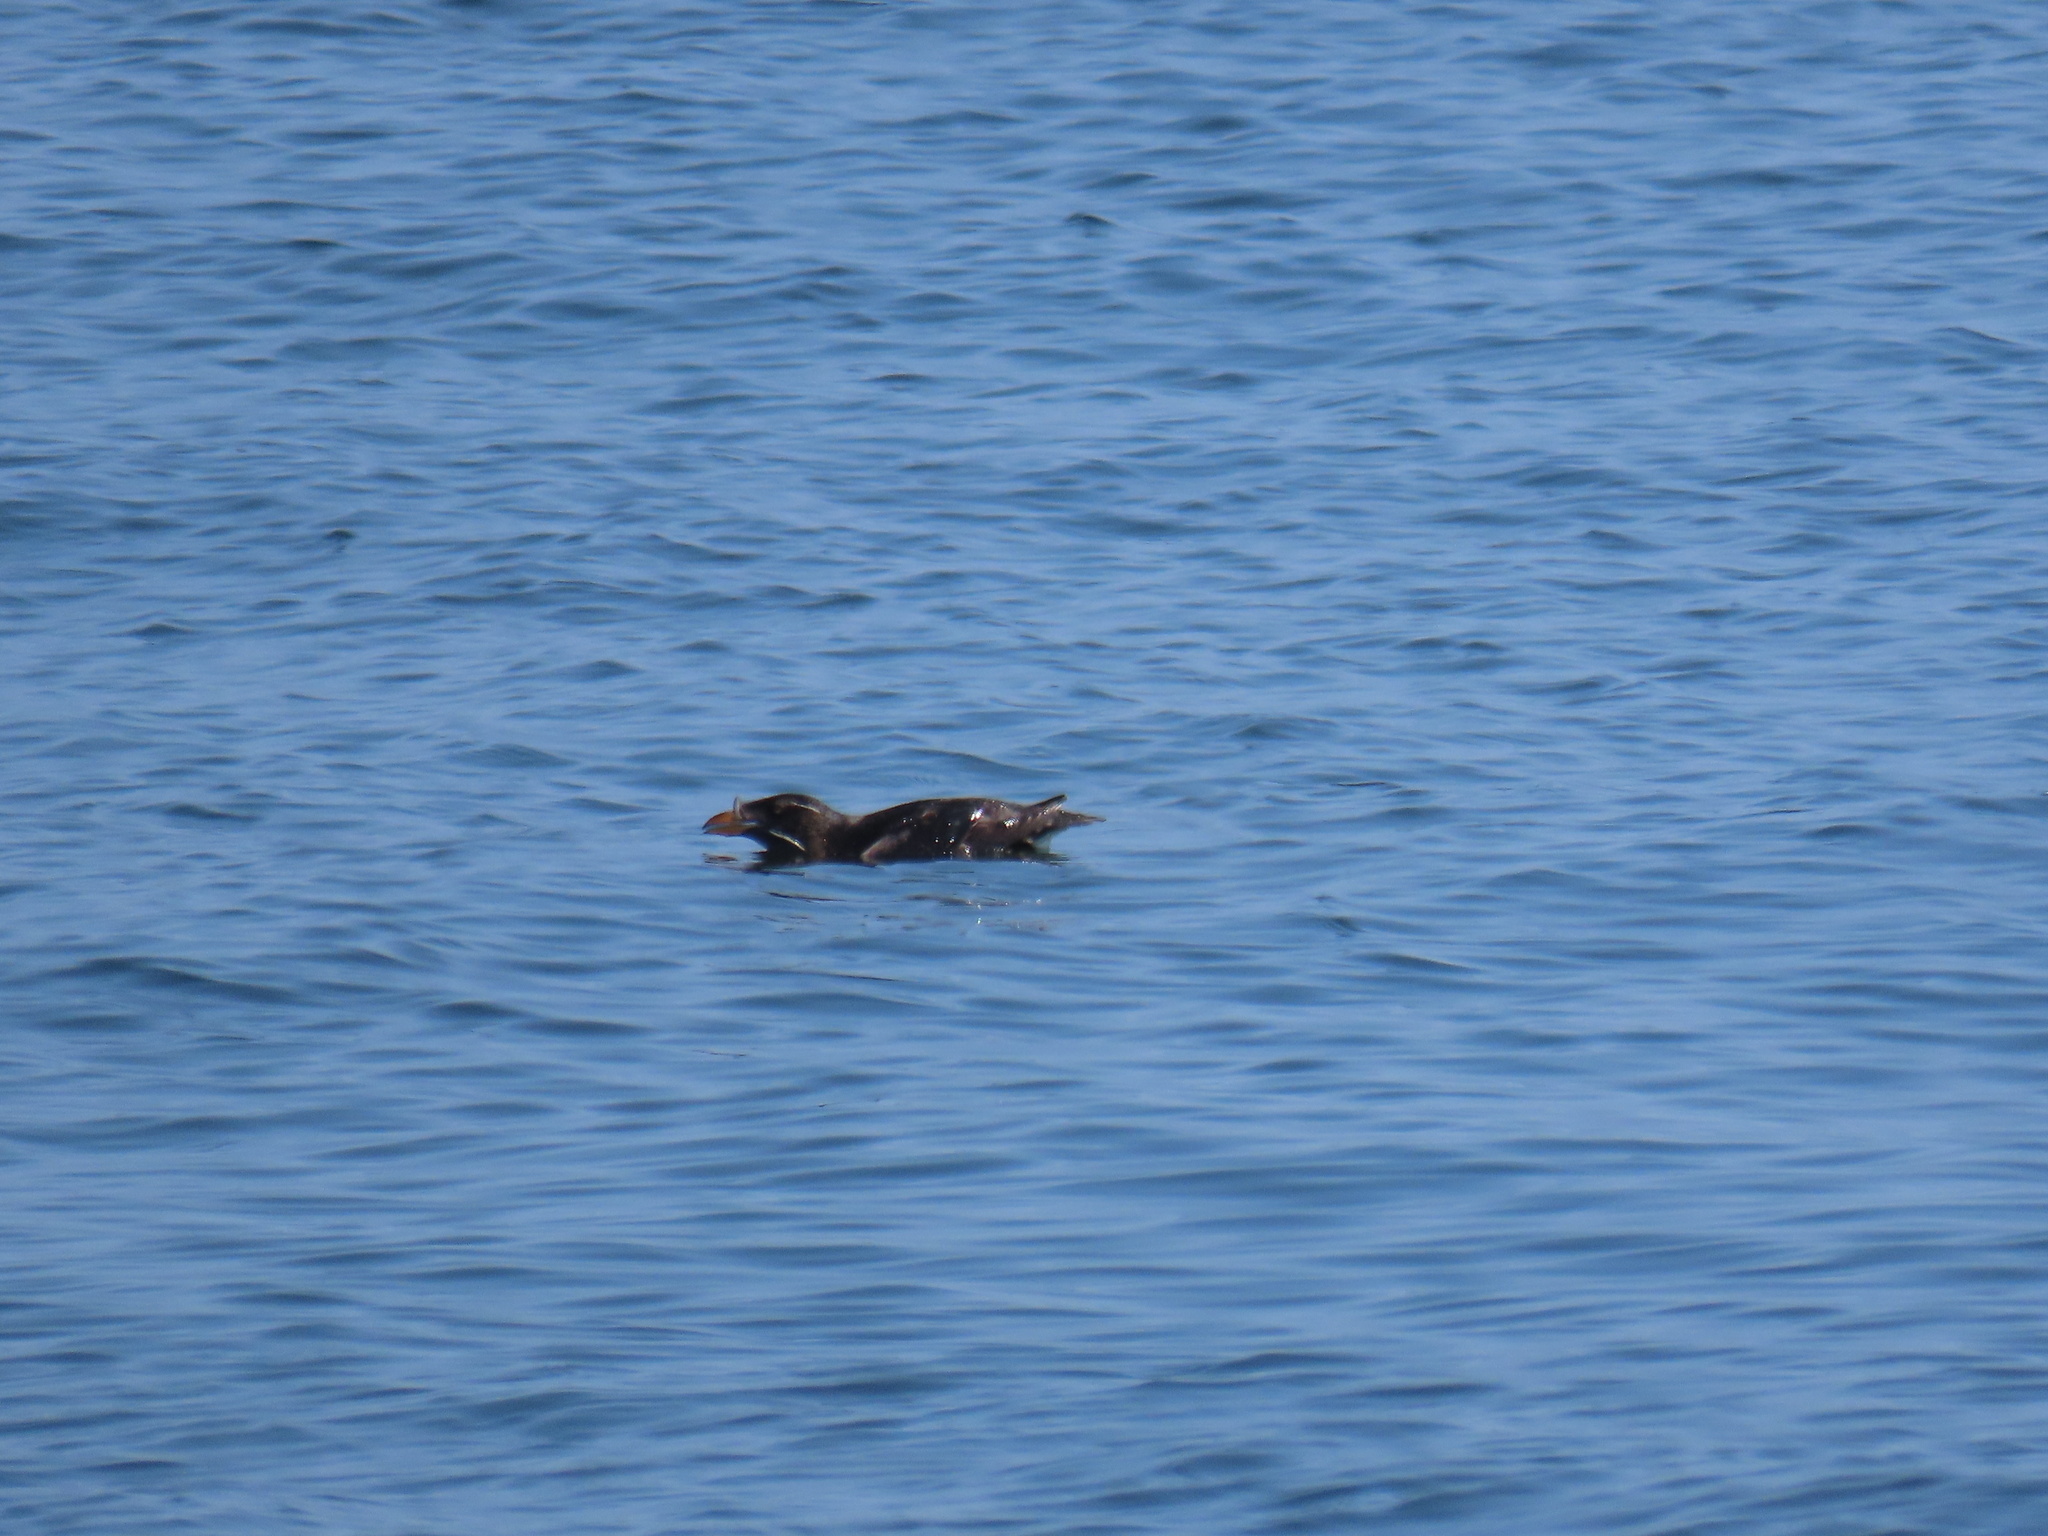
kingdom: Animalia
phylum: Chordata
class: Aves
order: Charadriiformes
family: Alcidae
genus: Cerorhinca
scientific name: Cerorhinca monocerata
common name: Rhinoceros auklet
